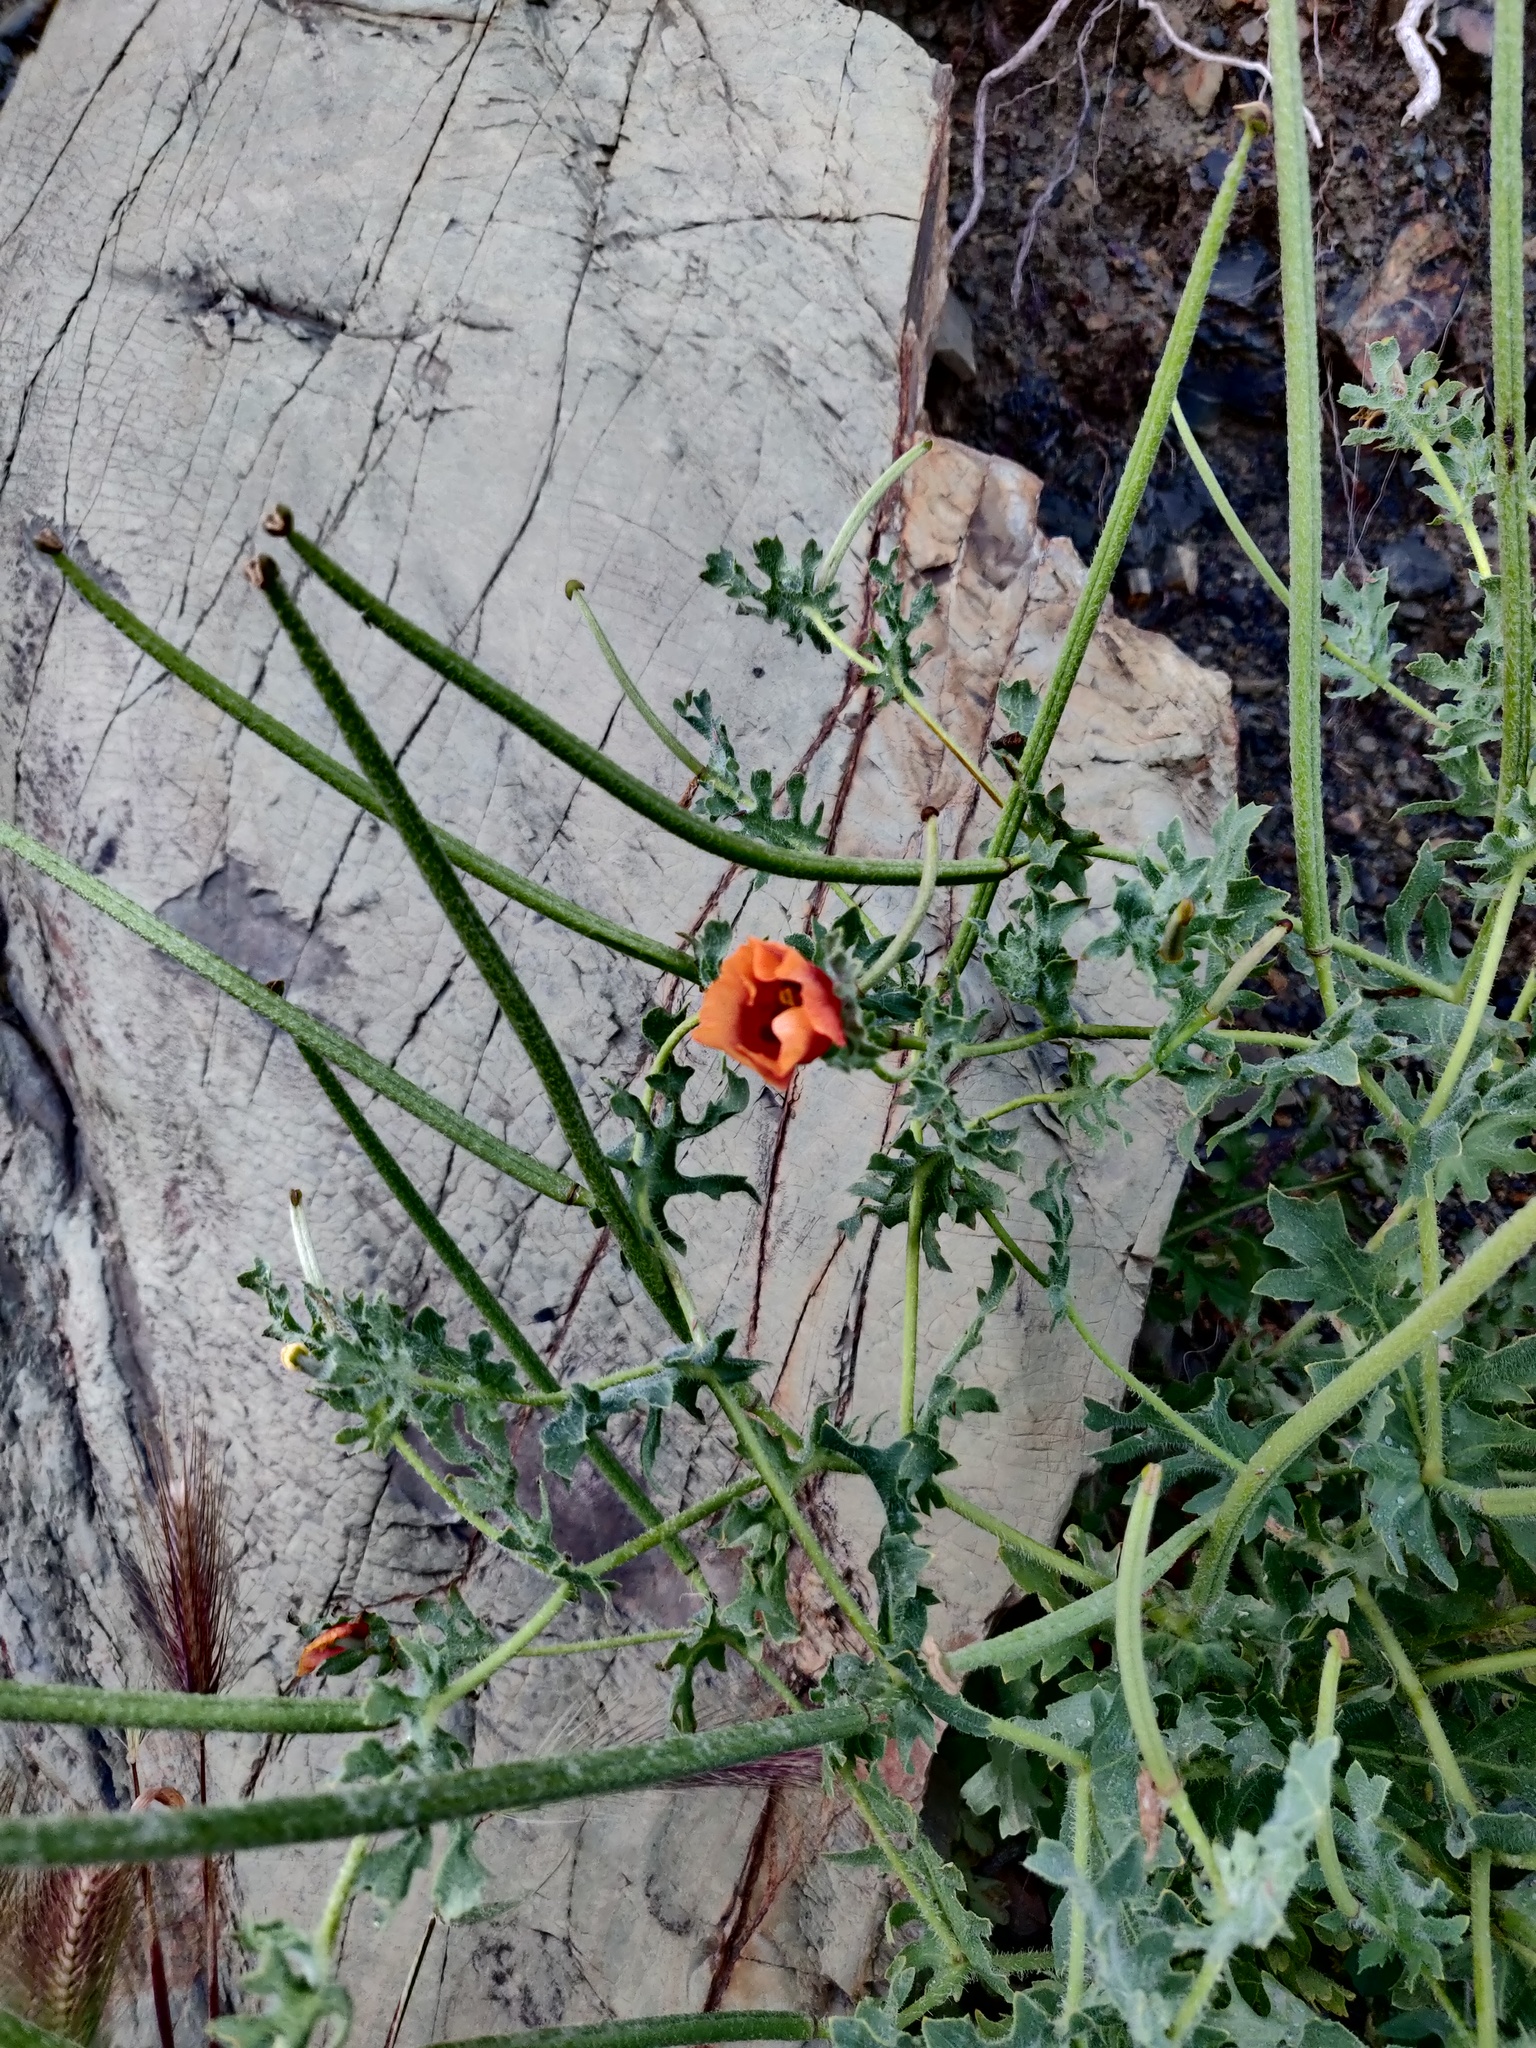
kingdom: Plantae
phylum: Tracheophyta
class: Magnoliopsida
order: Ranunculales
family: Papaveraceae
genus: Glaucium
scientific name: Glaucium corniculatum
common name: Red horned-poppy
